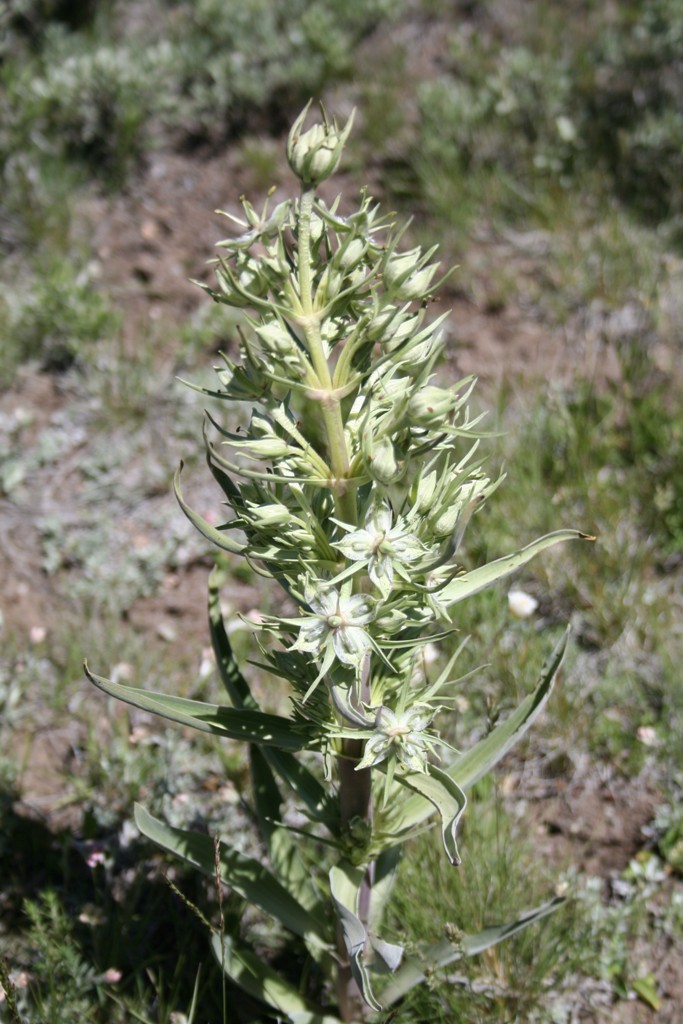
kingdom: Plantae
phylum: Tracheophyta
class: Magnoliopsida
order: Gentianales
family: Gentianaceae
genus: Frasera
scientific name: Frasera speciosa
